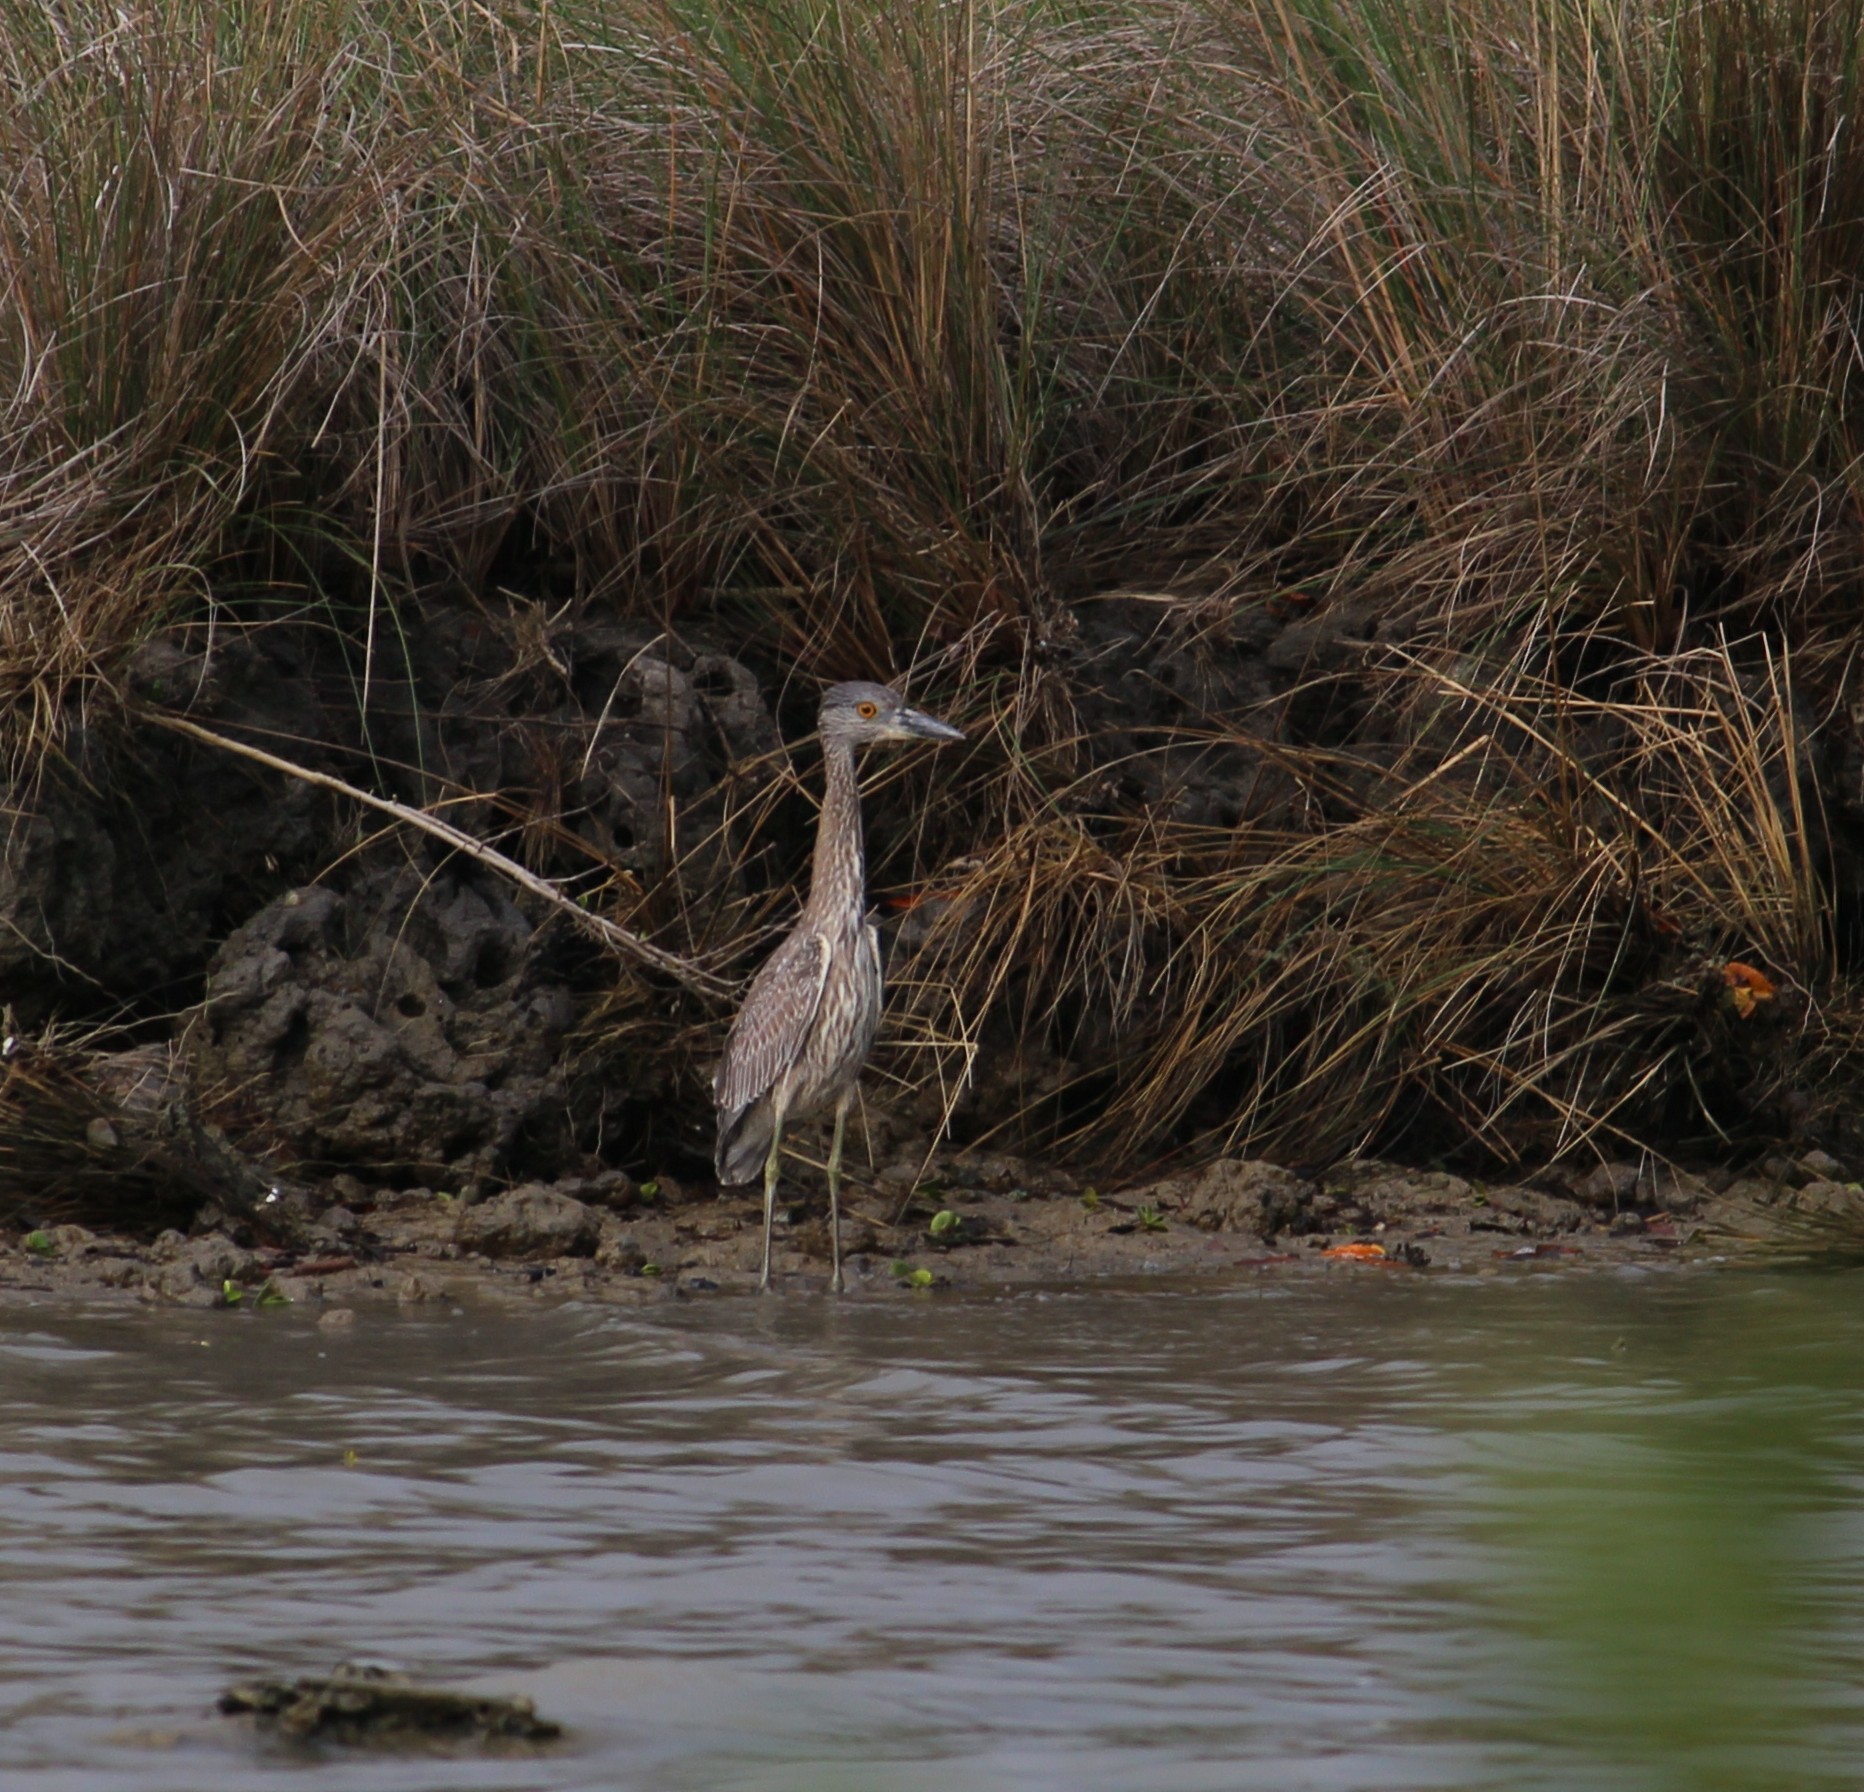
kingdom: Animalia
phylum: Chordata
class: Aves
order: Pelecaniformes
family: Ardeidae
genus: Nyctanassa
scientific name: Nyctanassa violacea
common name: Yellow-crowned night heron
